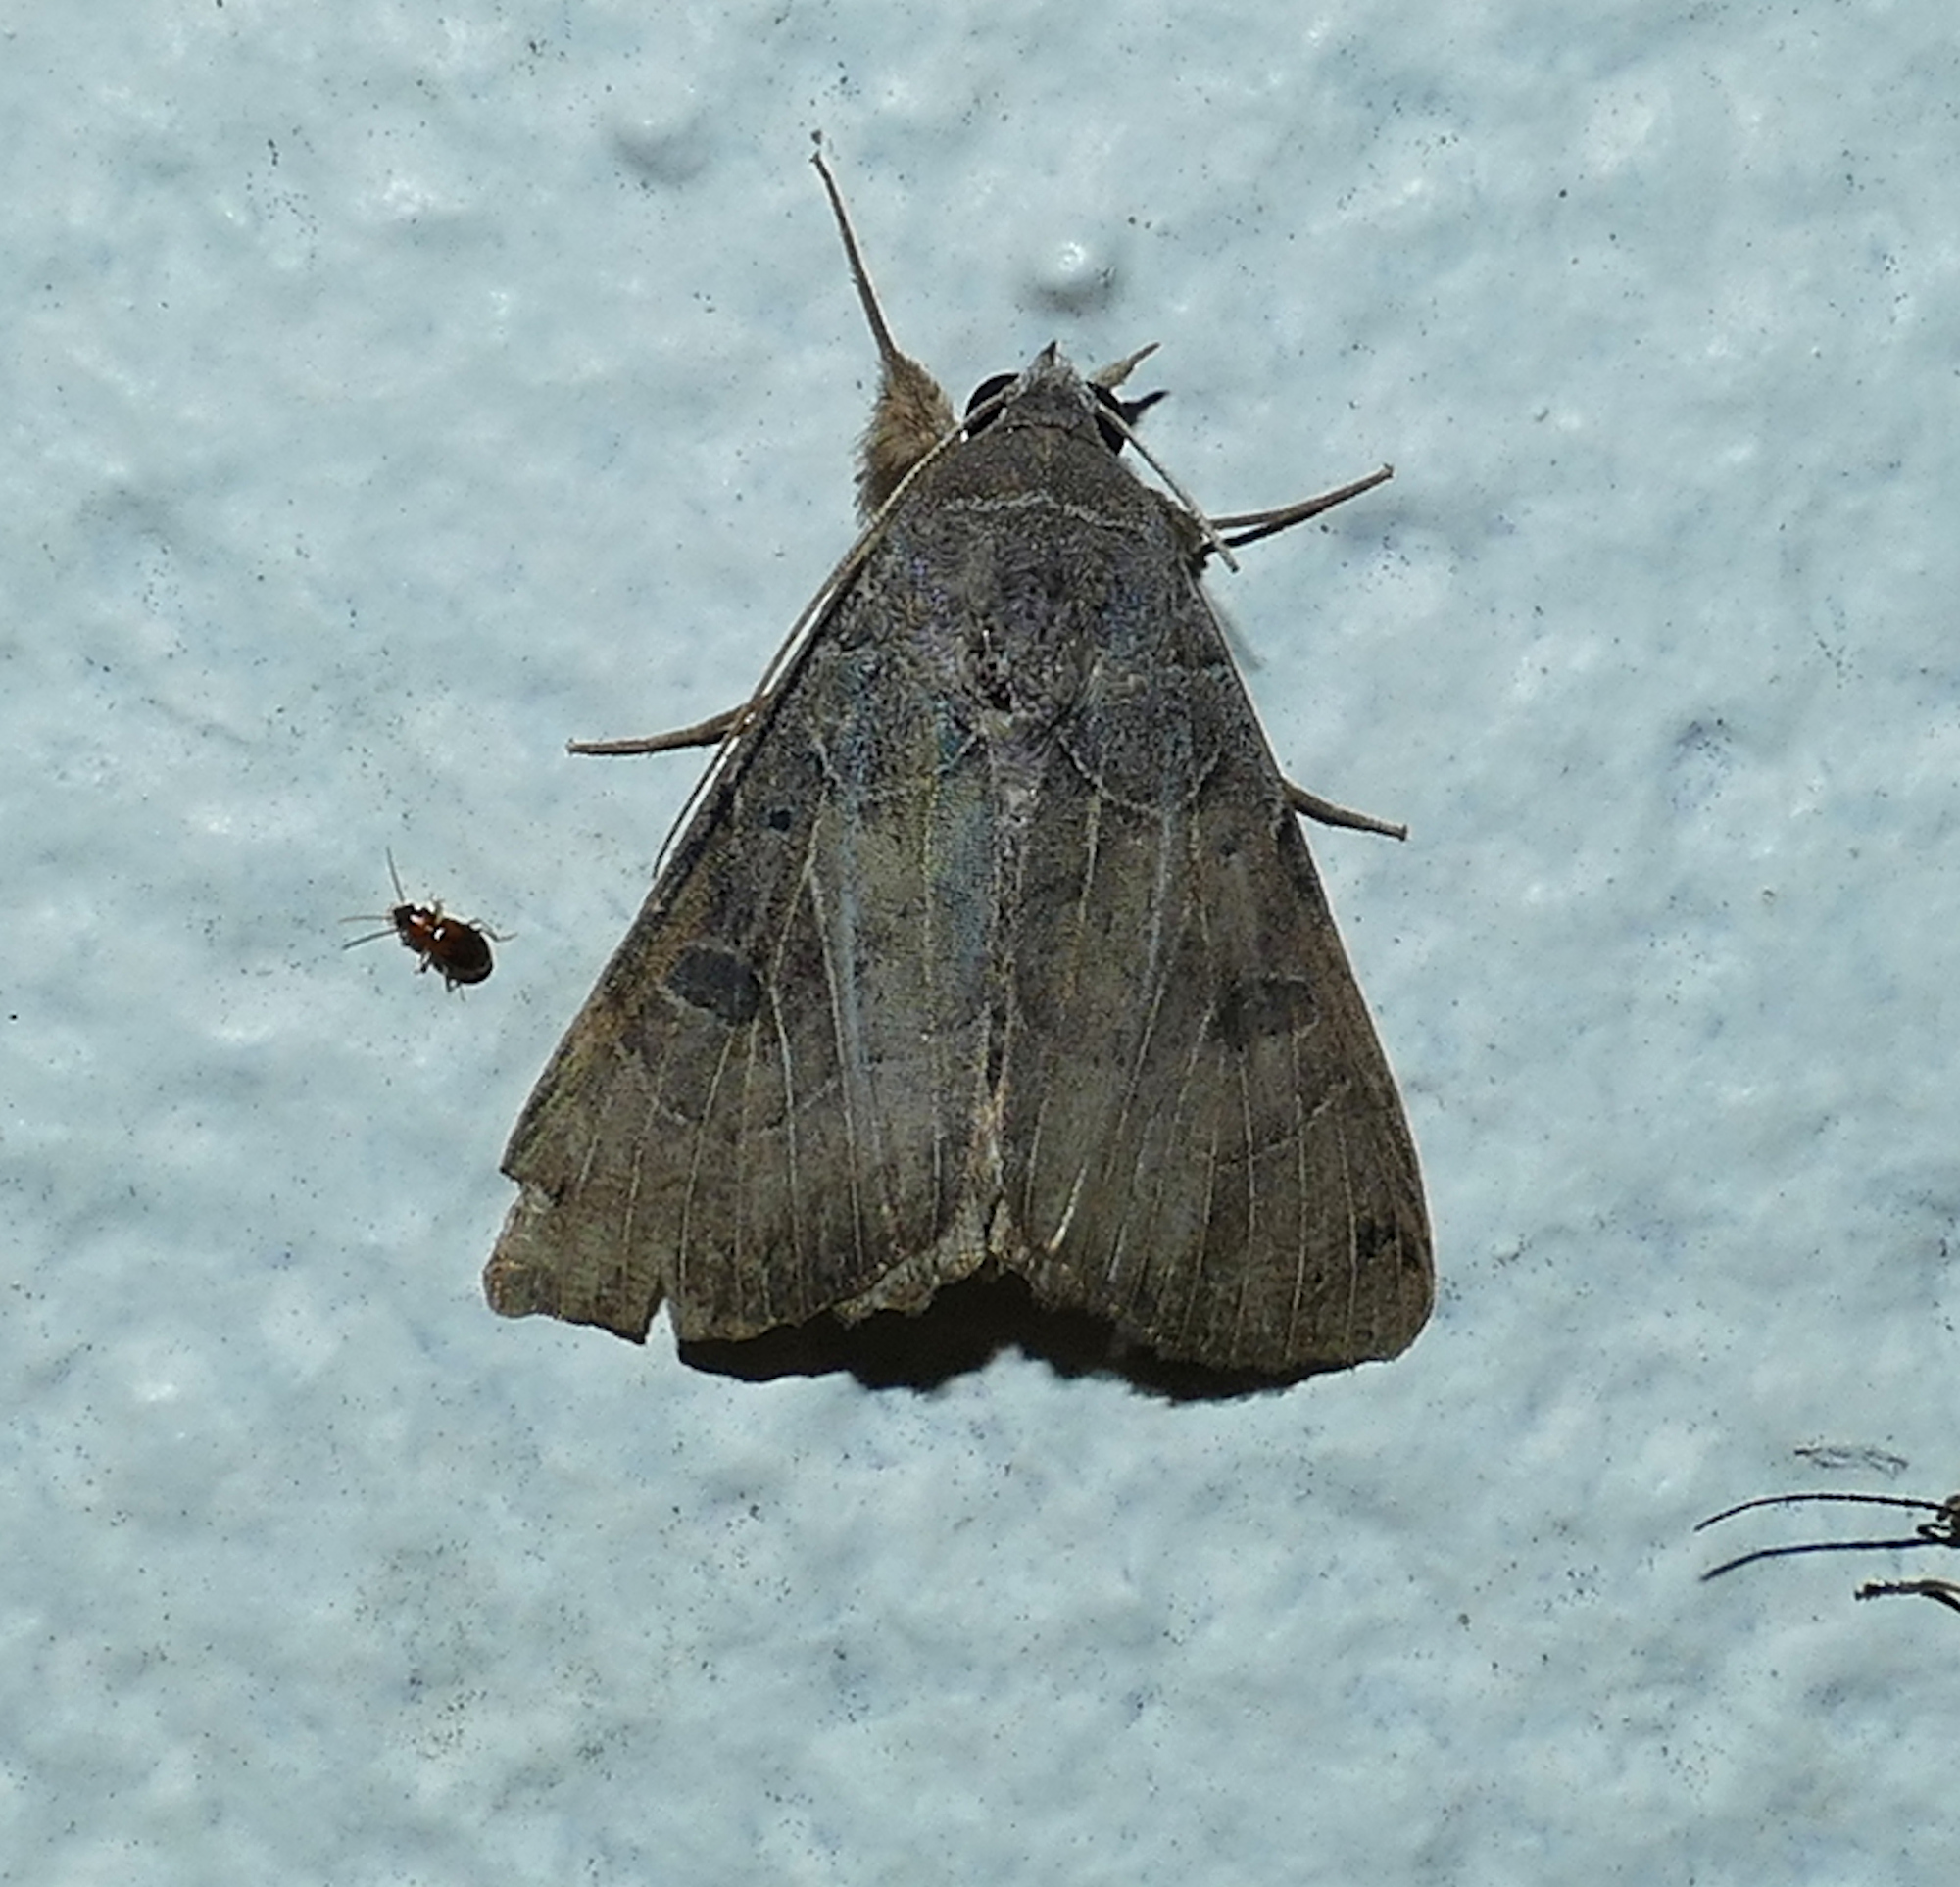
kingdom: Animalia
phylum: Arthropoda
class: Insecta
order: Lepidoptera
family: Erebidae
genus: Isogona
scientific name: Isogona scindens
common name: Owlet moth
